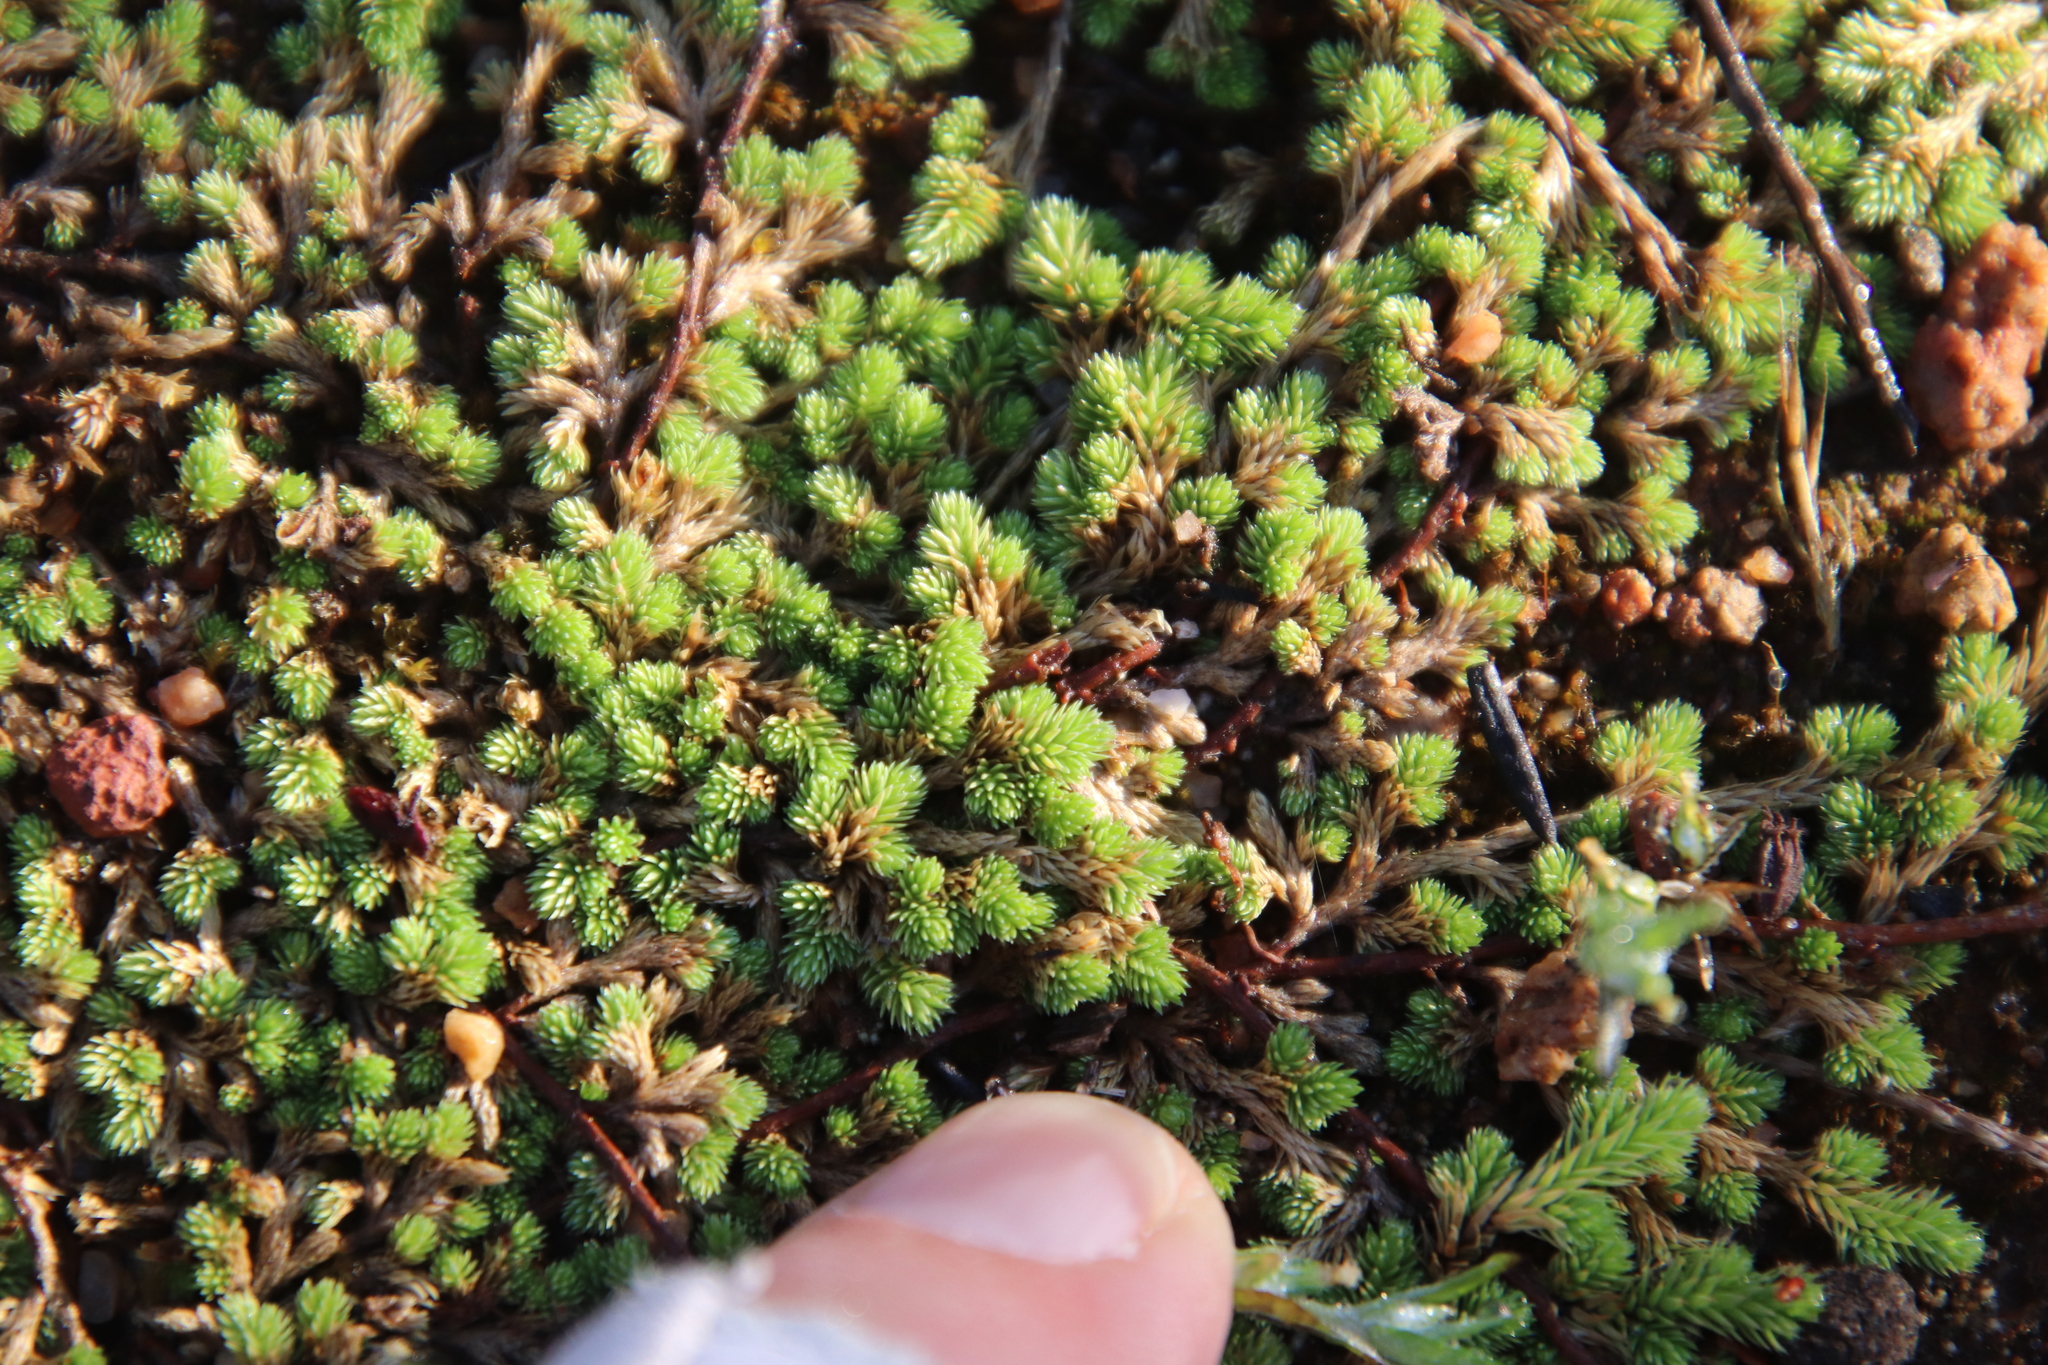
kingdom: Plantae
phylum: Tracheophyta
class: Lycopodiopsida
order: Selaginellales
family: Selaginellaceae
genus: Selaginella
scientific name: Selaginella cinerascens
